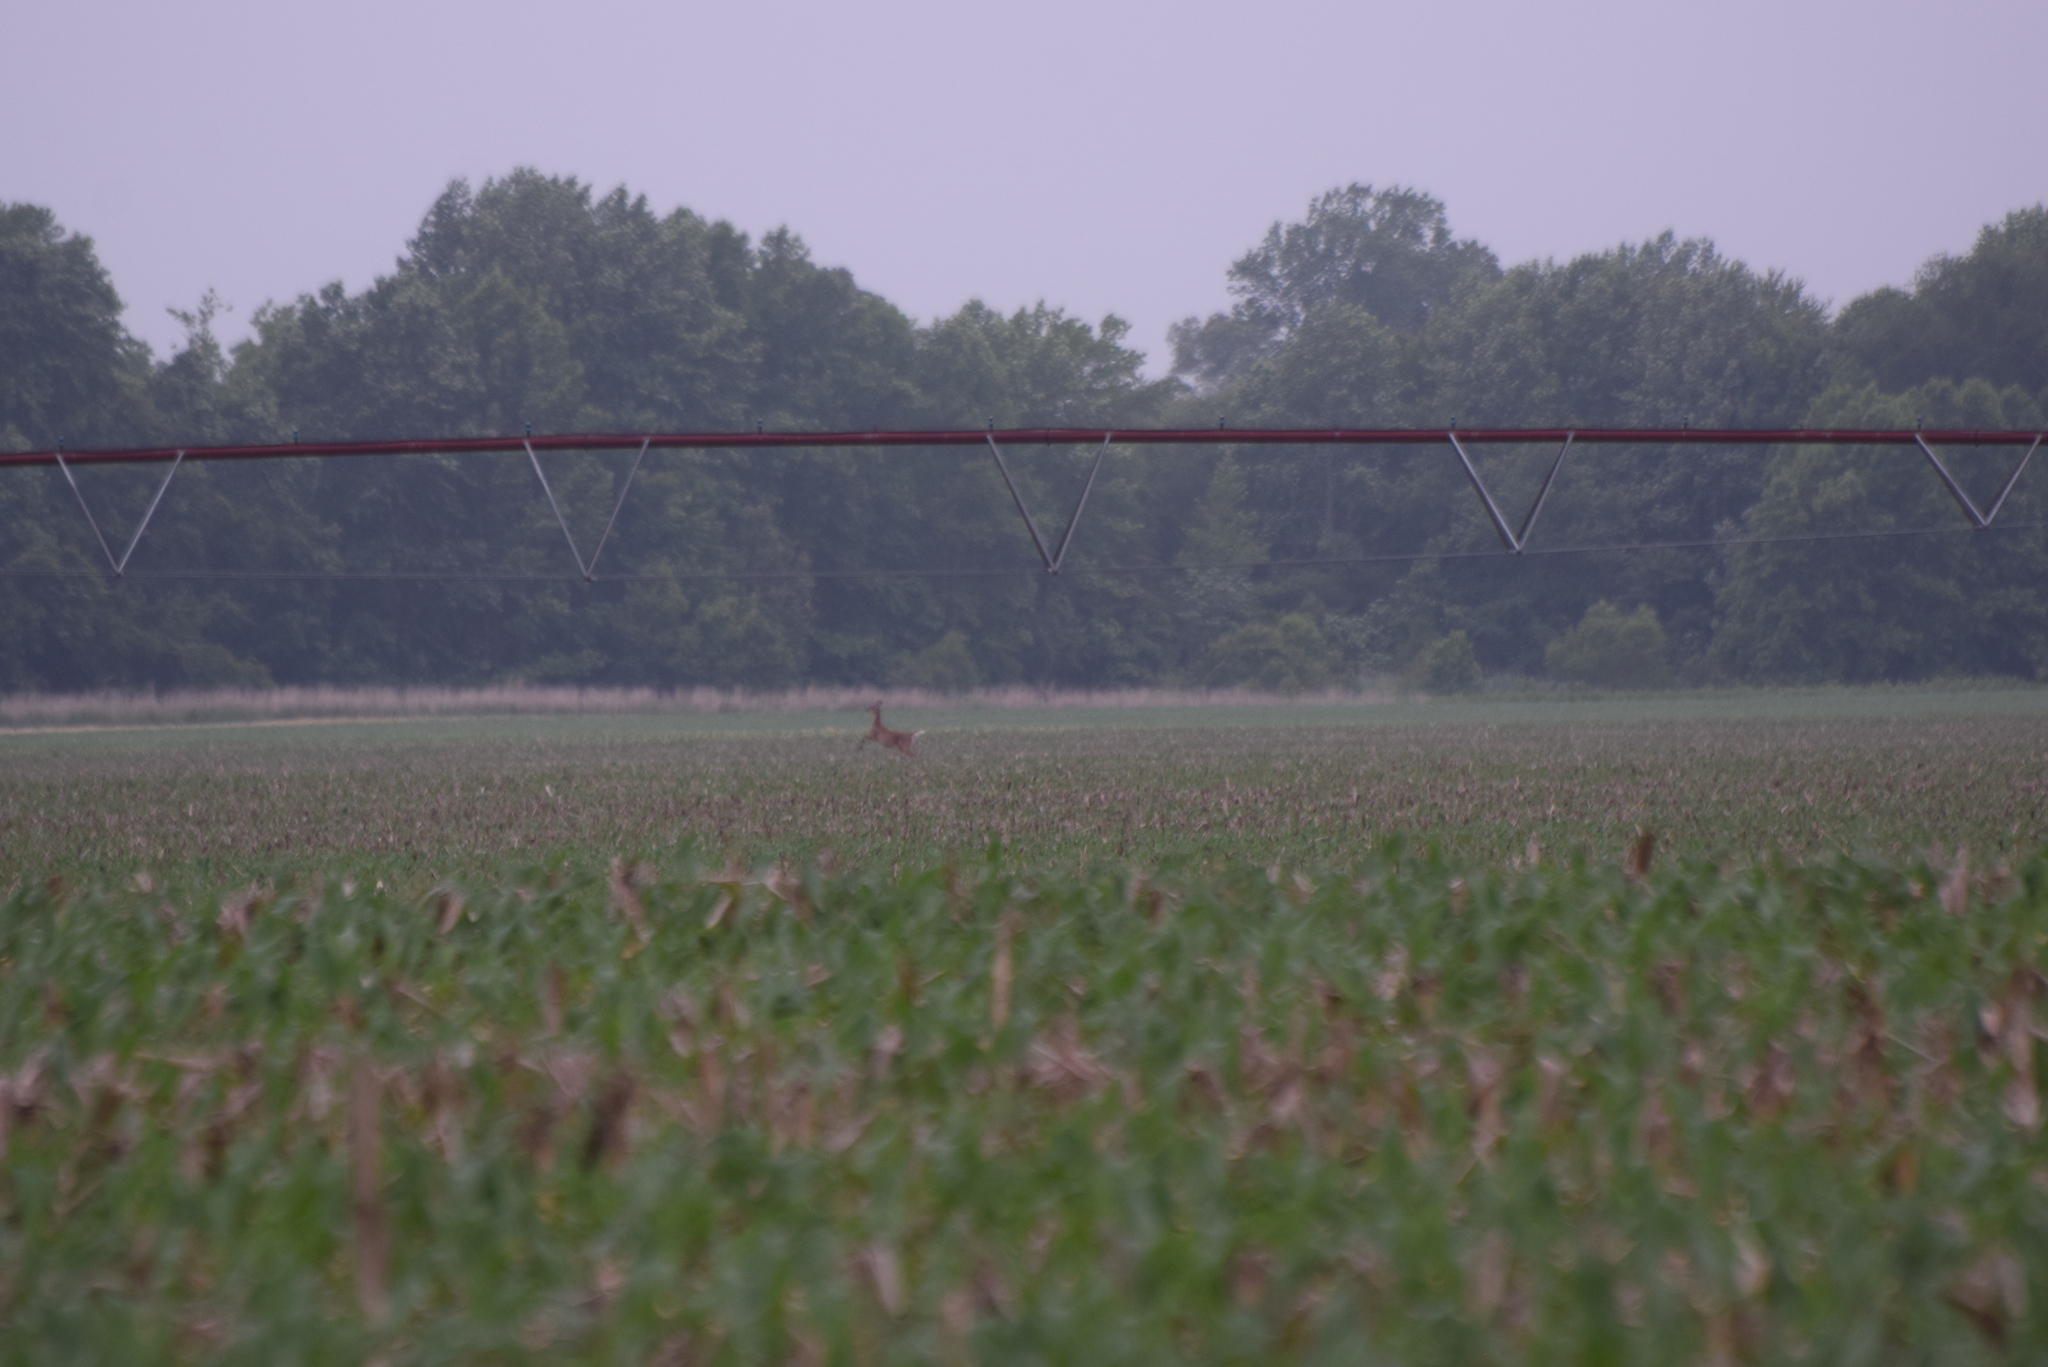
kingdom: Animalia
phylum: Chordata
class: Mammalia
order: Artiodactyla
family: Cervidae
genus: Odocoileus
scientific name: Odocoileus virginianus
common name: White-tailed deer
